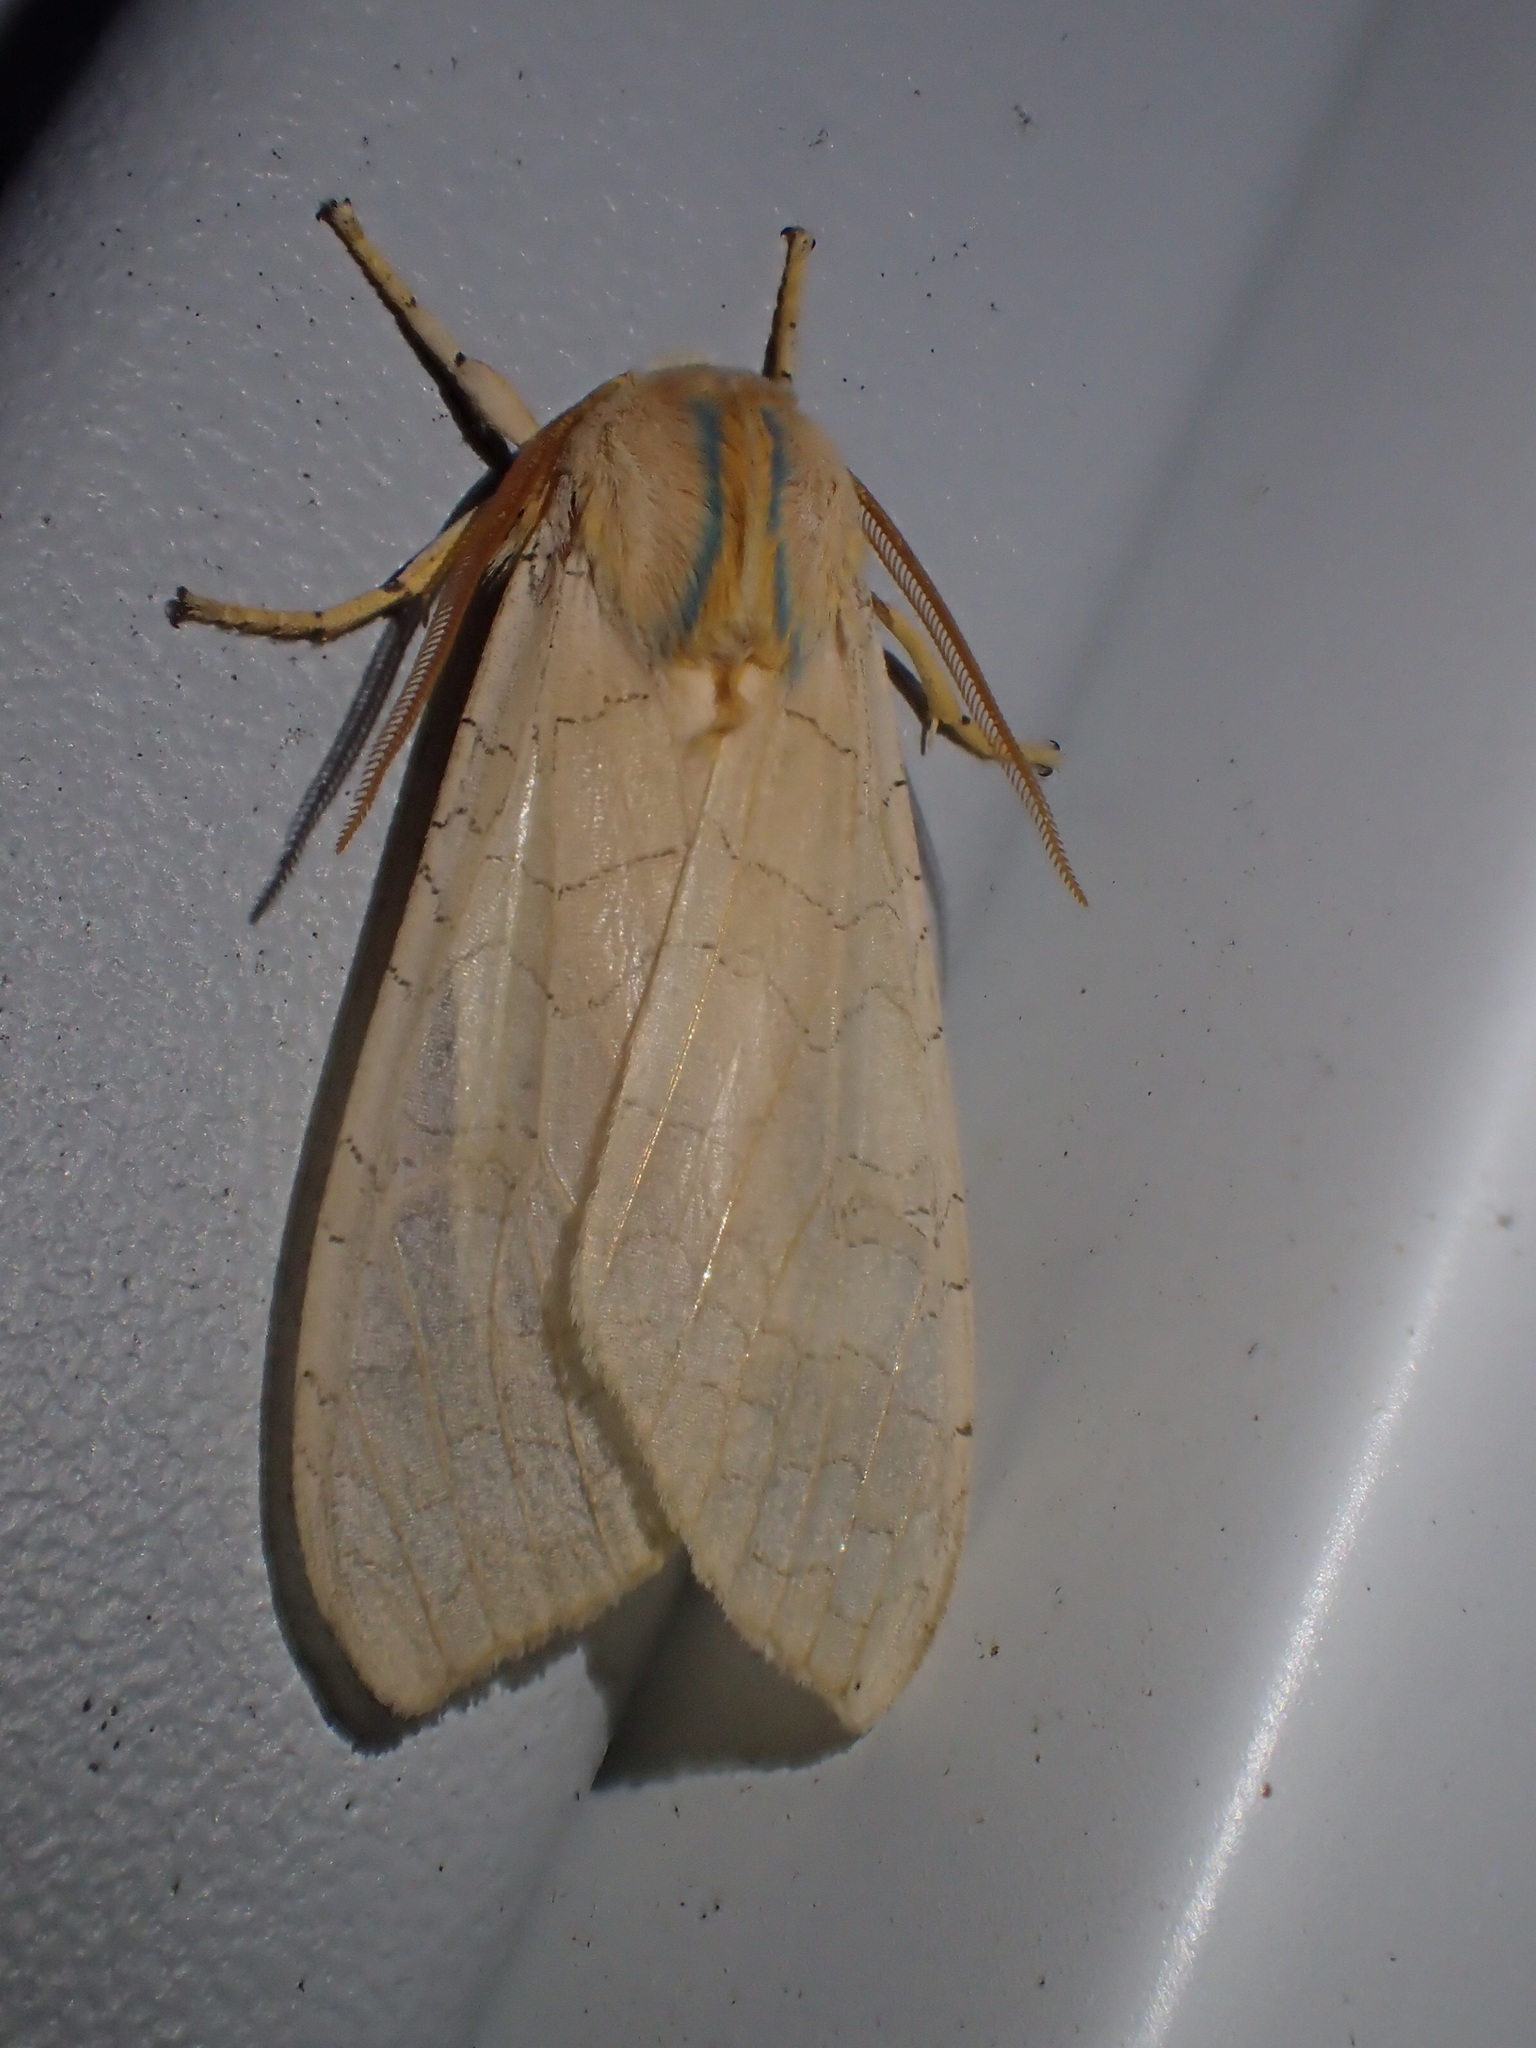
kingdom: Animalia
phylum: Arthropoda
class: Insecta
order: Lepidoptera
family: Erebidae
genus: Halysidota
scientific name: Halysidota tessellaris
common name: Banded tussock moth
